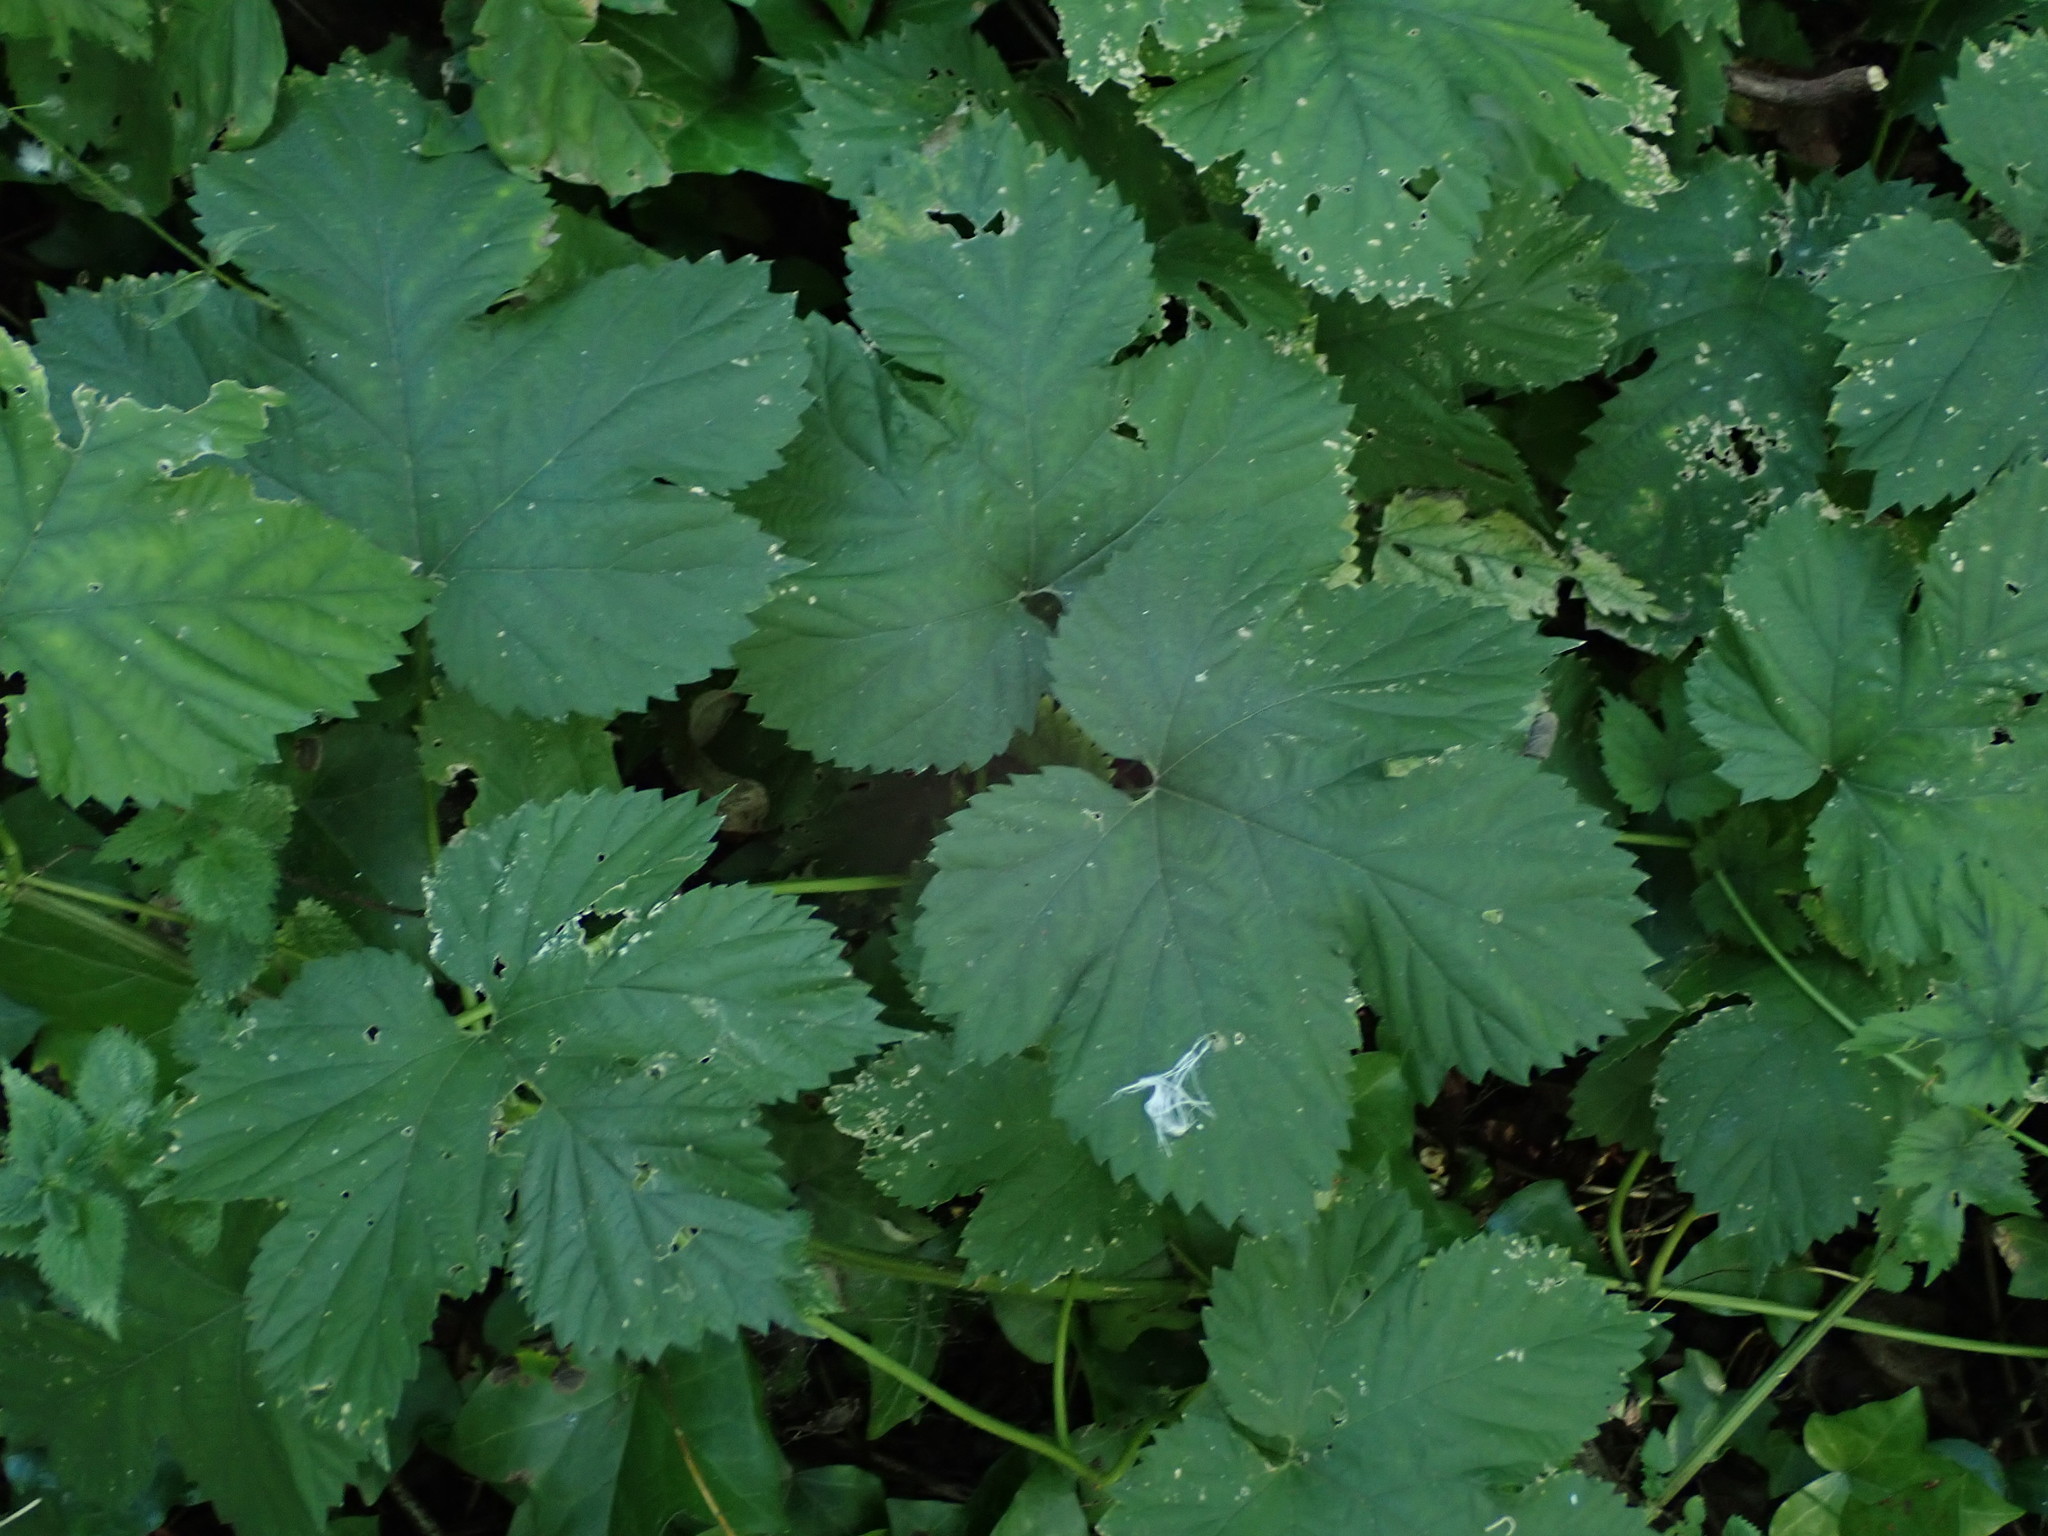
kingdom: Plantae
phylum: Tracheophyta
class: Magnoliopsida
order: Rosales
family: Cannabaceae
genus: Humulus
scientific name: Humulus lupulus
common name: Hop
